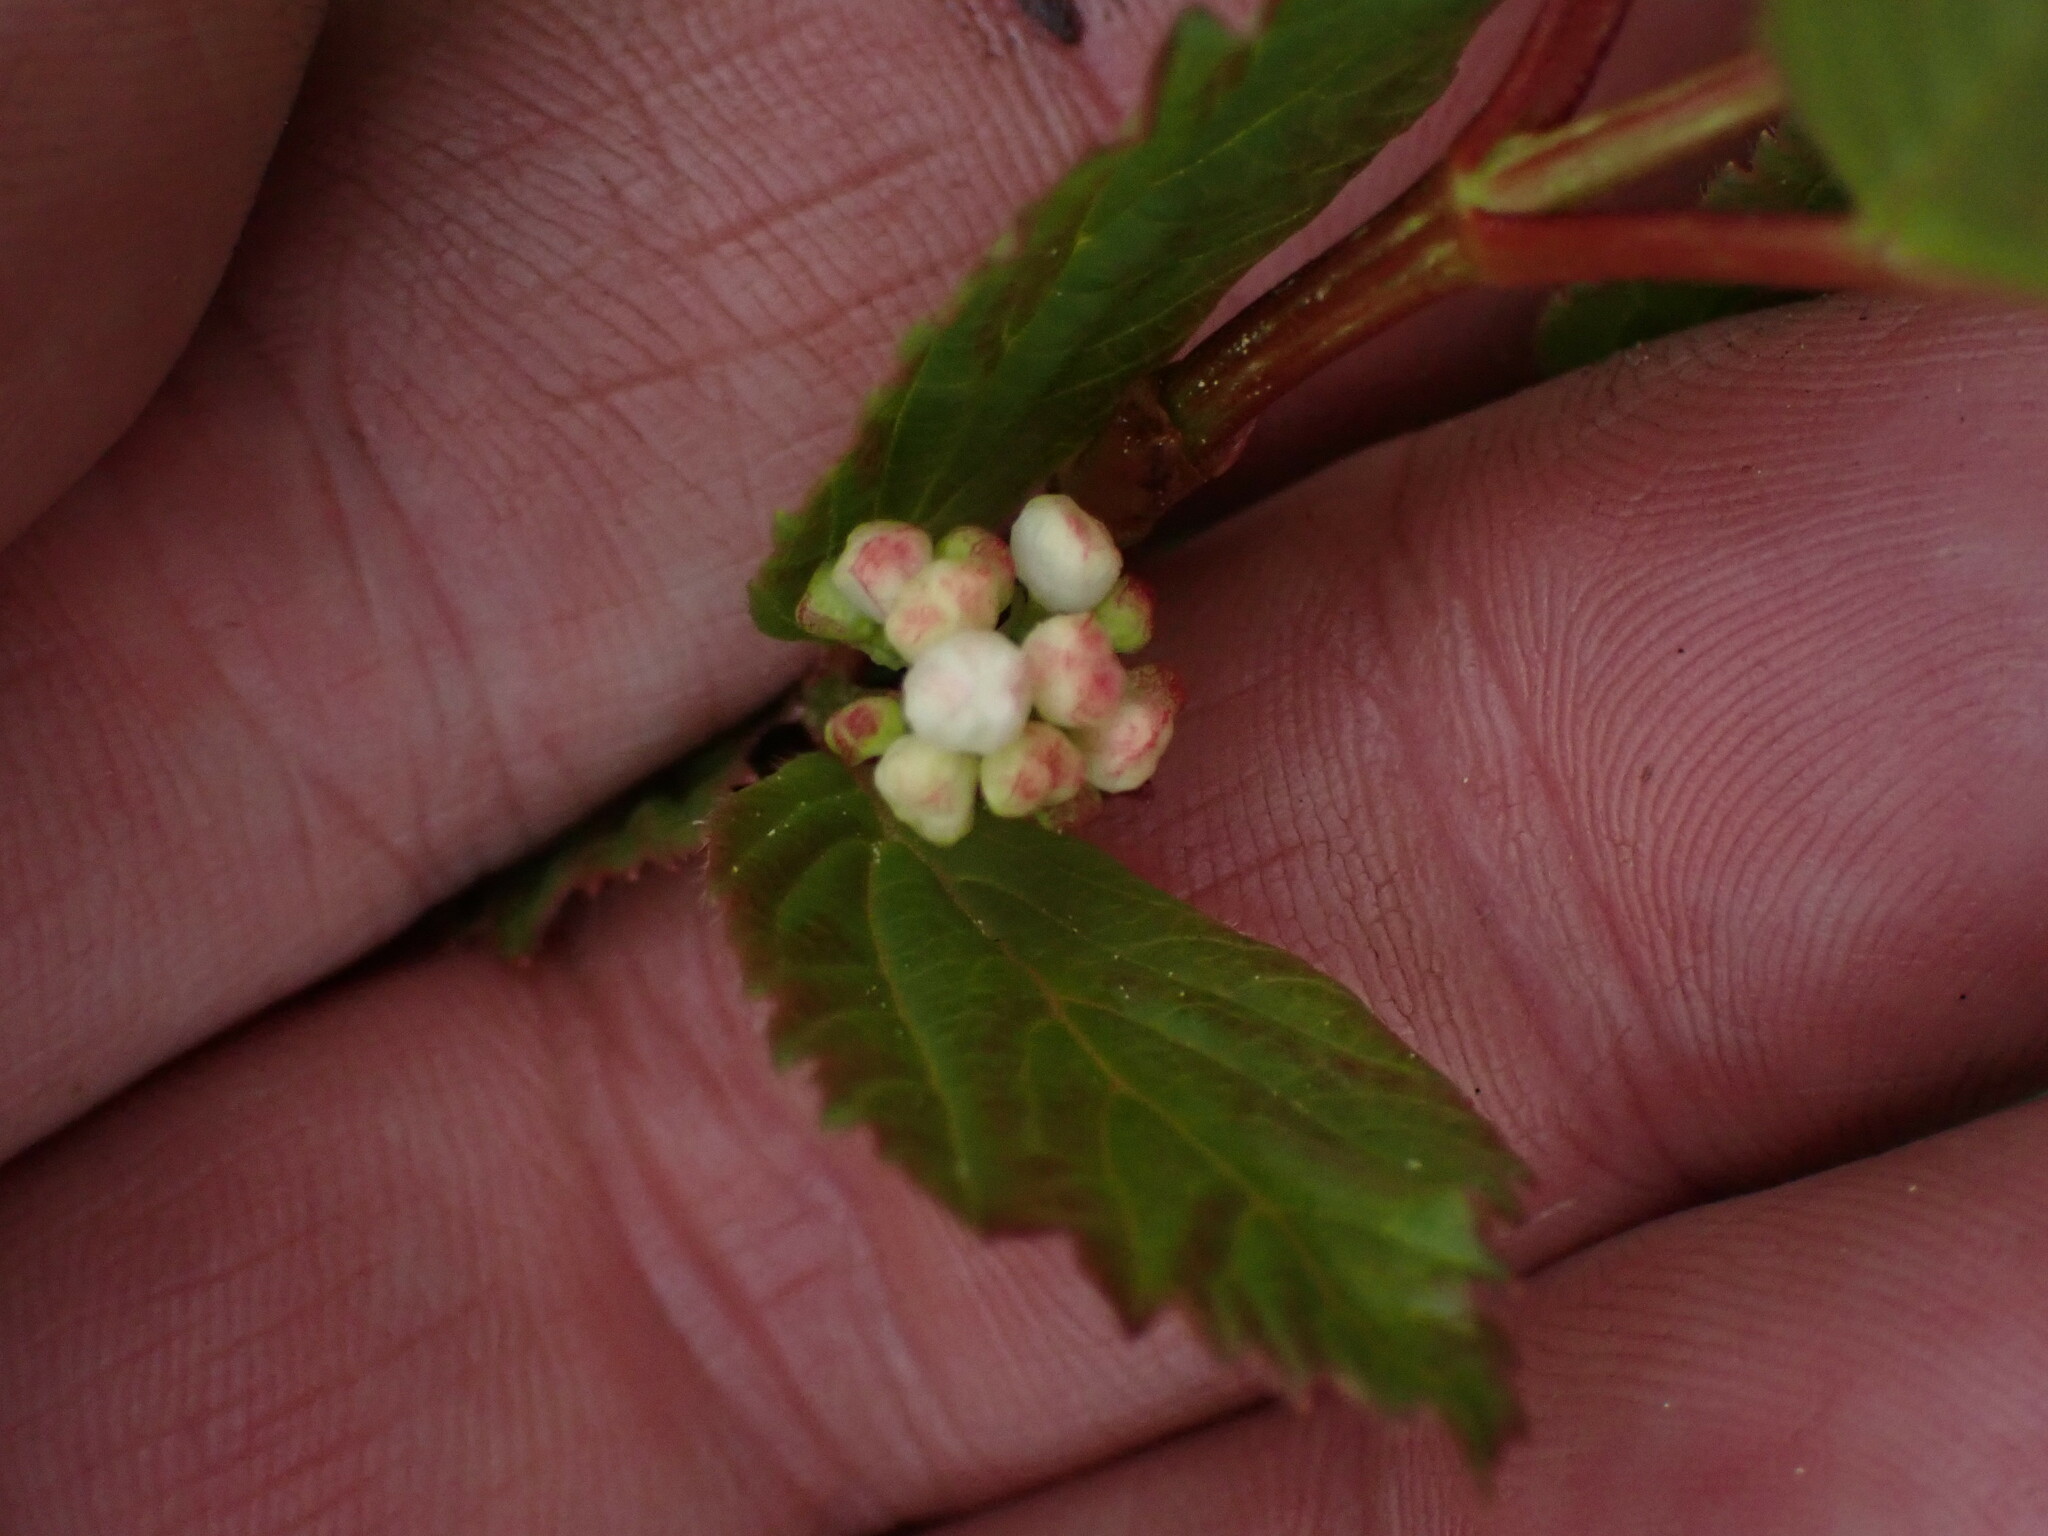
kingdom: Plantae
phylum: Tracheophyta
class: Magnoliopsida
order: Dipsacales
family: Viburnaceae
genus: Viburnum
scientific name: Viburnum edule
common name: Mooseberry
